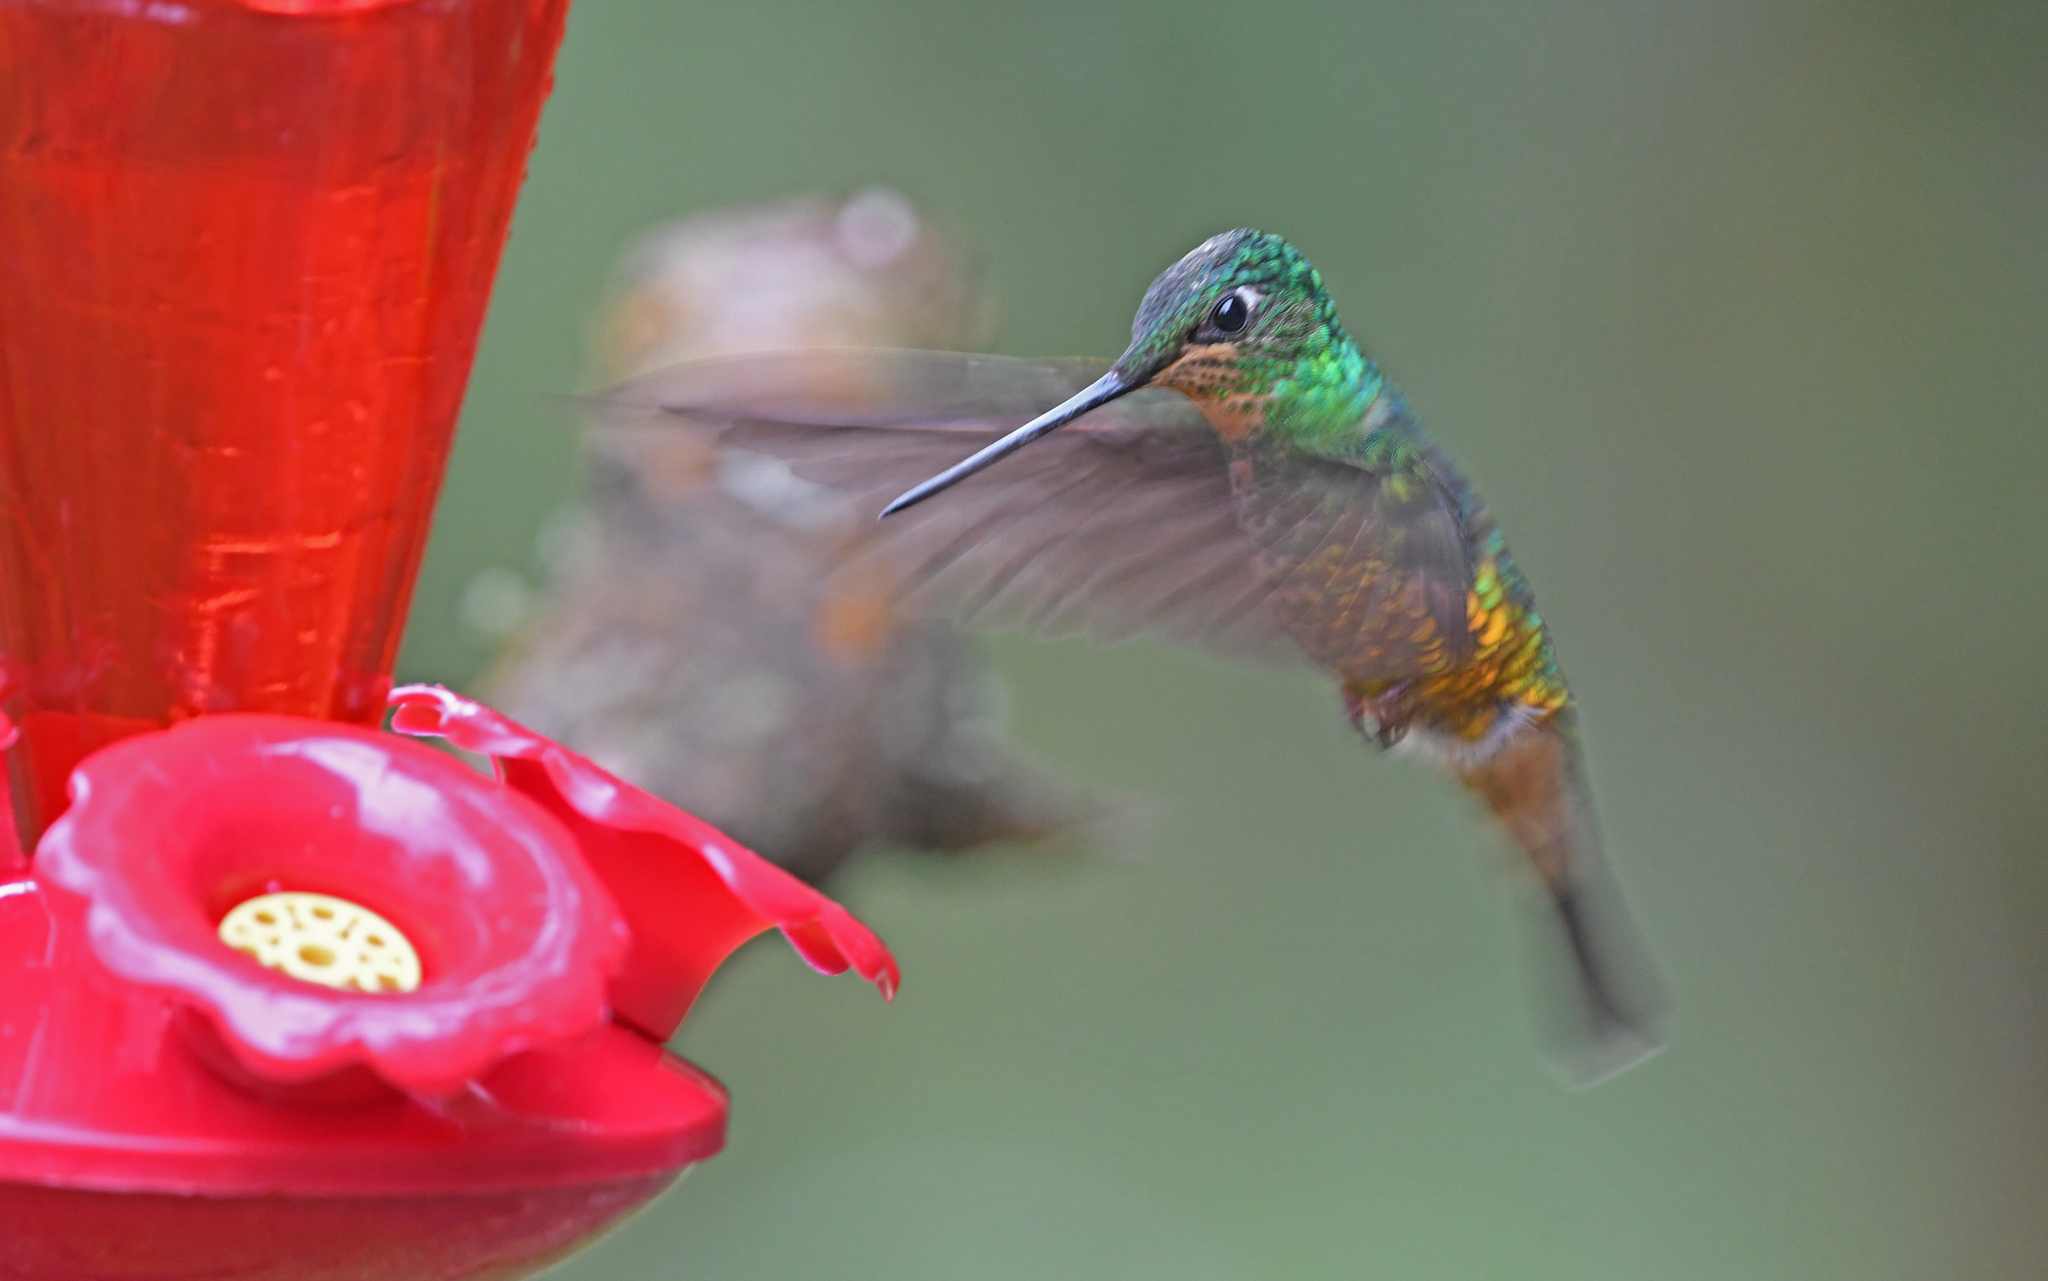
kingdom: Animalia
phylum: Chordata
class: Aves
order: Apodiformes
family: Trochilidae
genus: Coeligena
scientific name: Coeligena bonapartei
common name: Golden-bellied starfrontlet
